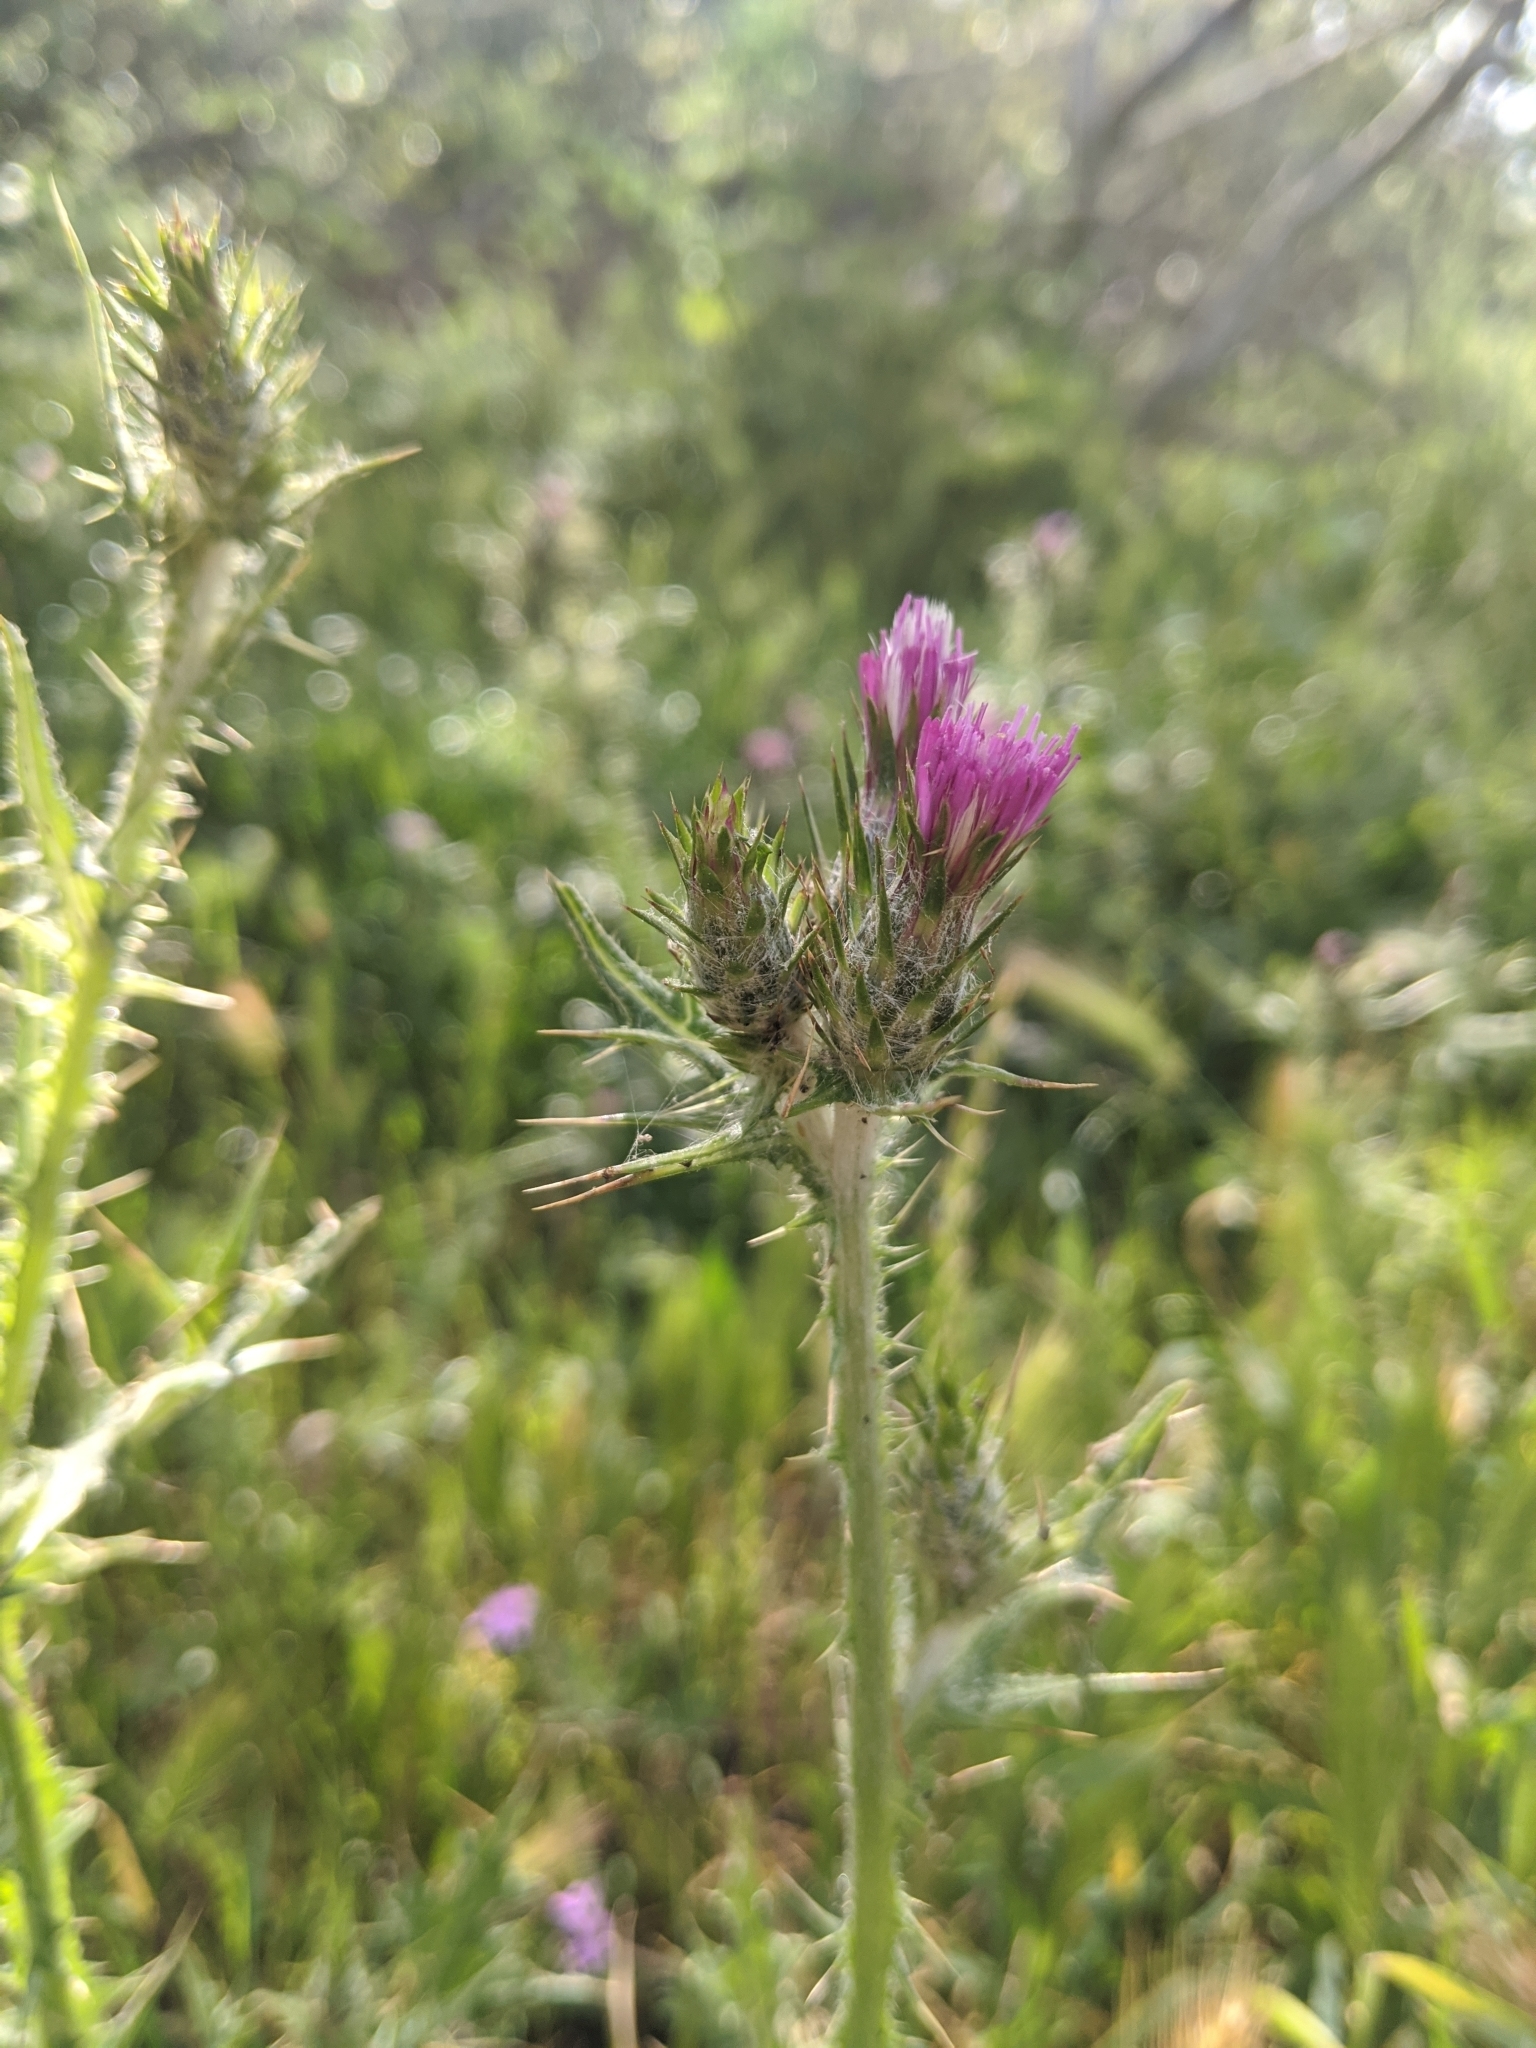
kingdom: Plantae
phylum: Tracheophyta
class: Magnoliopsida
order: Asterales
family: Asteraceae
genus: Carduus
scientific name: Carduus pycnocephalus
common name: Plymouth thistle
